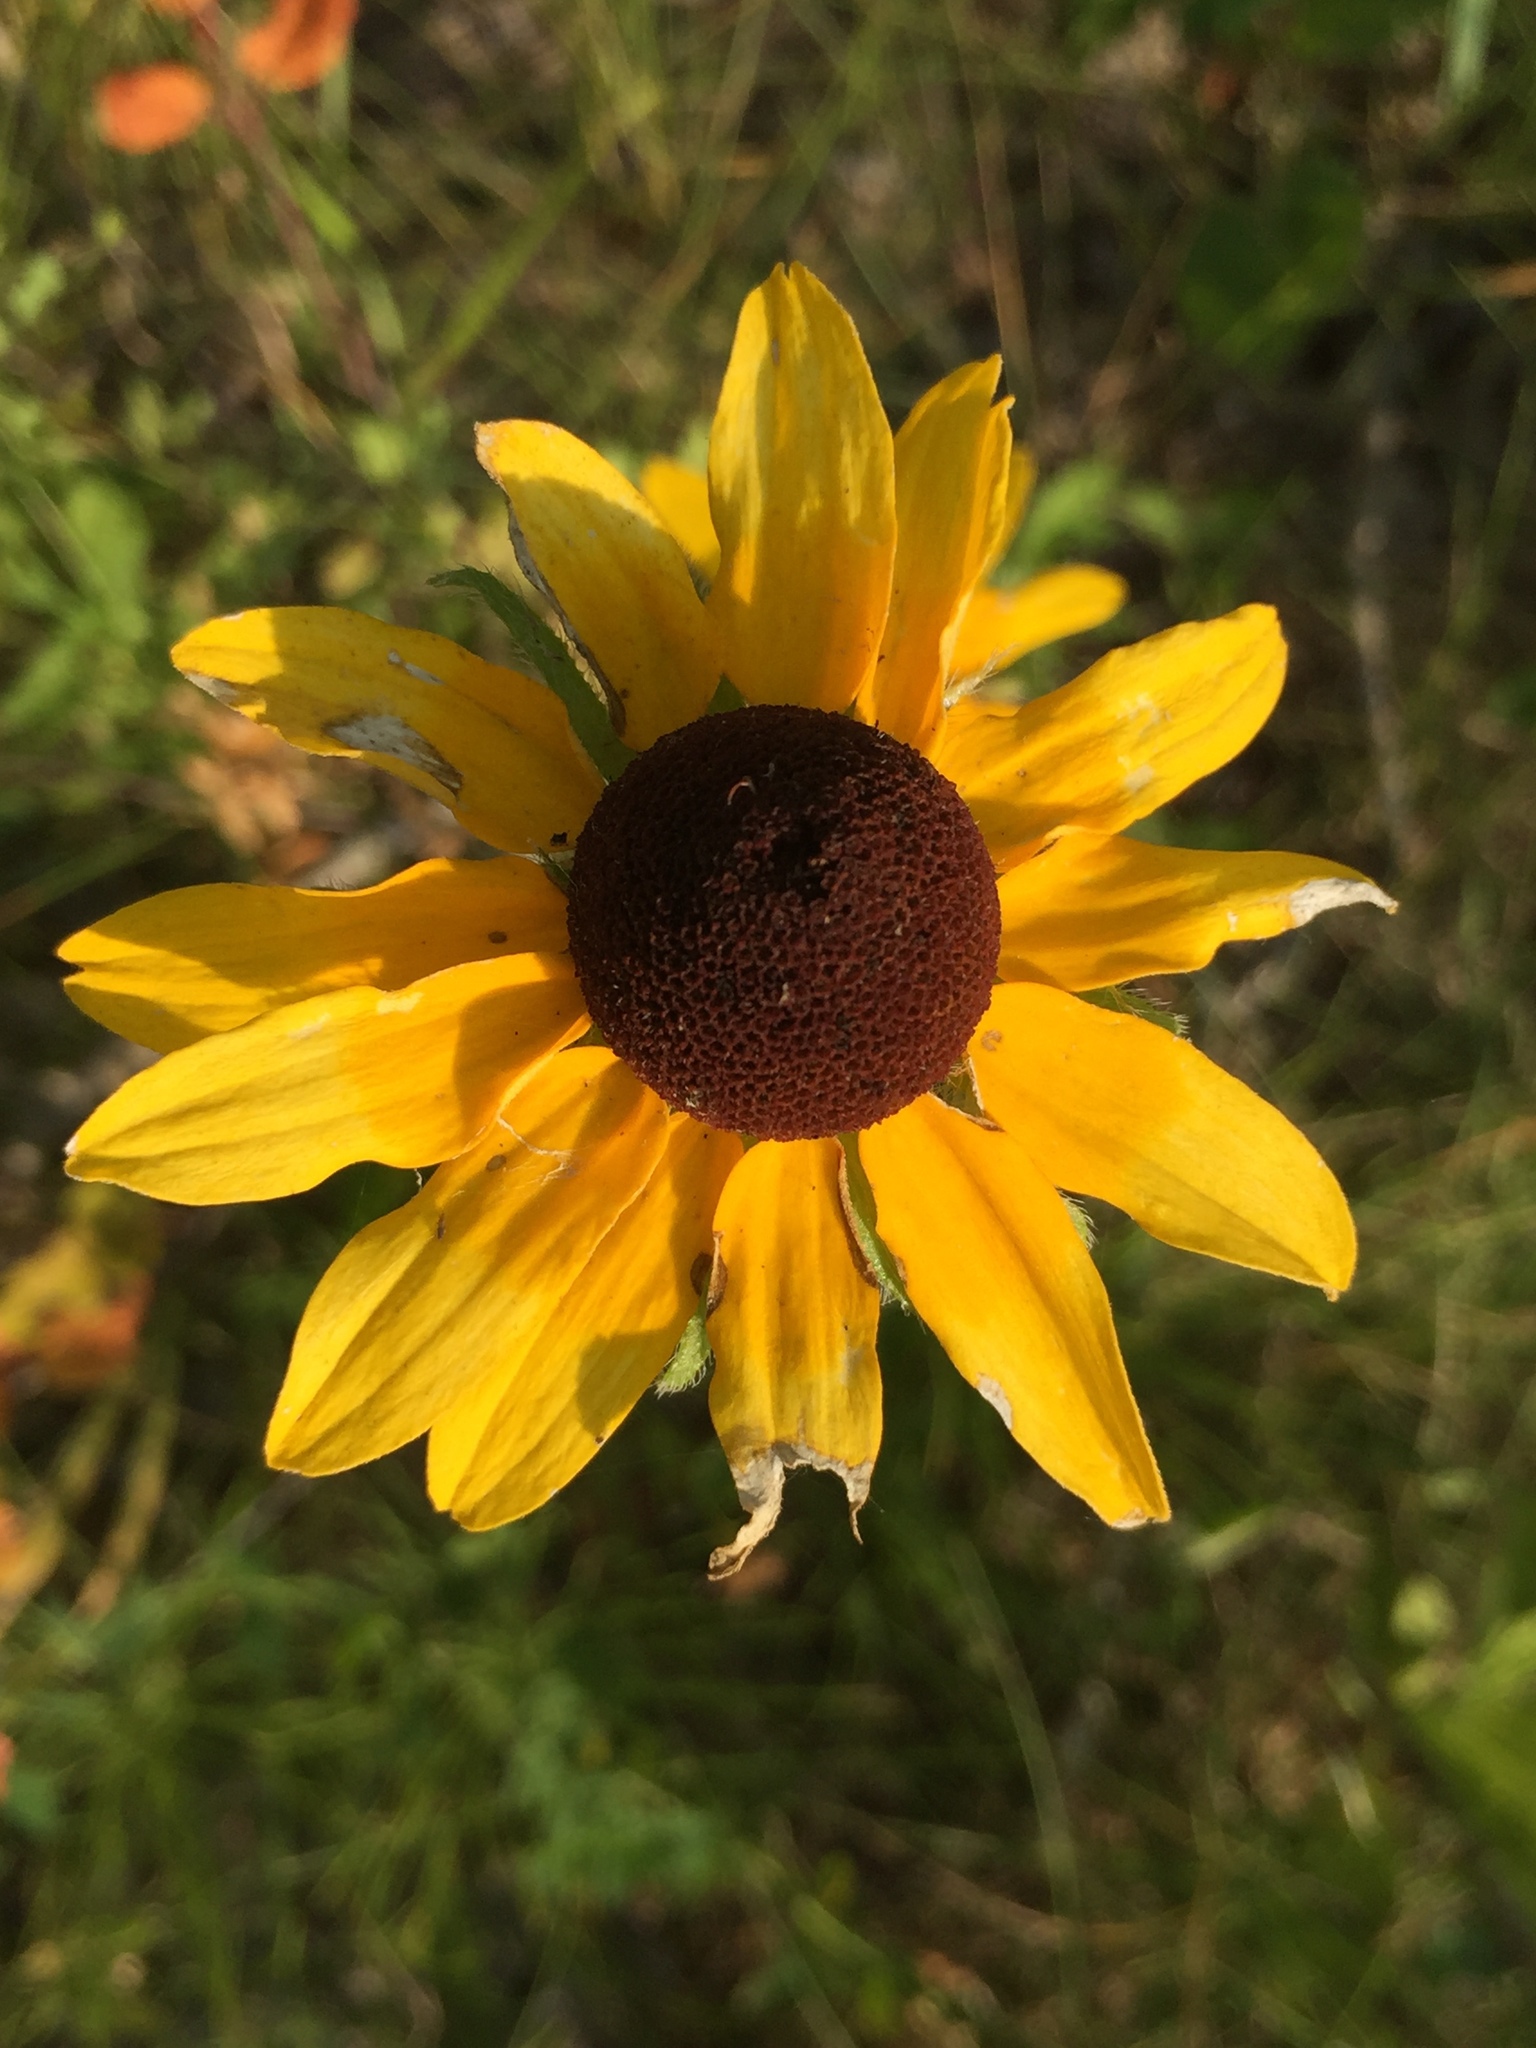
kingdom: Plantae
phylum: Tracheophyta
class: Magnoliopsida
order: Asterales
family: Asteraceae
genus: Rudbeckia
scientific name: Rudbeckia hirta
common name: Black-eyed-susan
